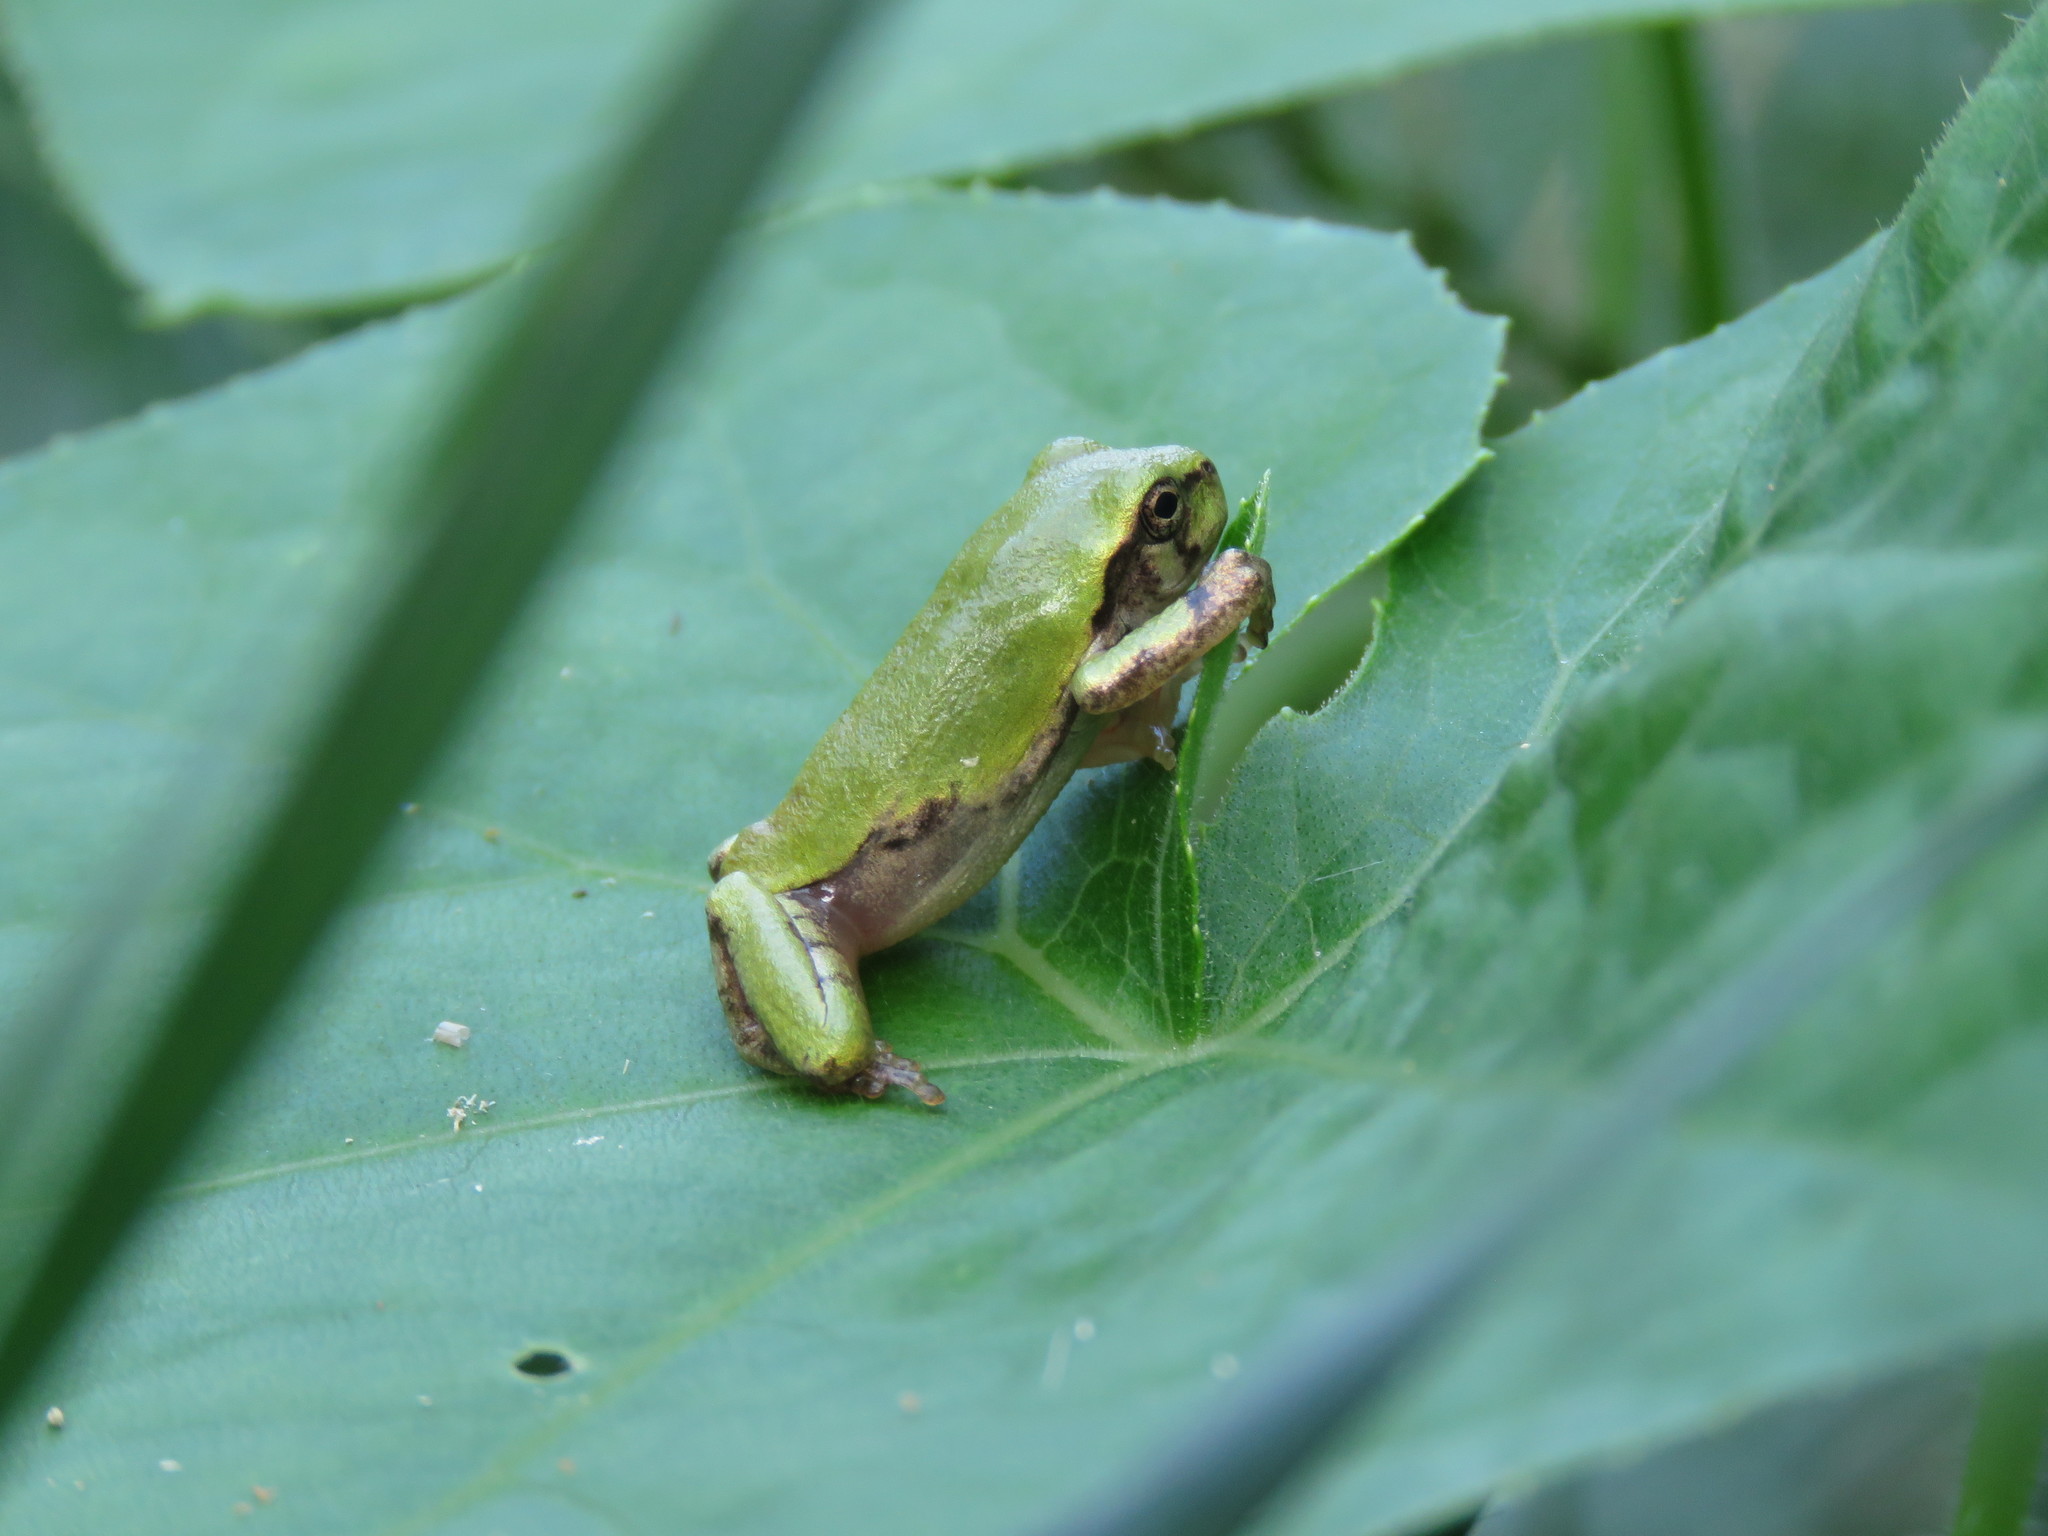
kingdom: Animalia
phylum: Chordata
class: Amphibia
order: Anura
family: Hylidae
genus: Dryophytes
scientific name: Dryophytes chrysoscelis
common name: Cope's gray treefrog
